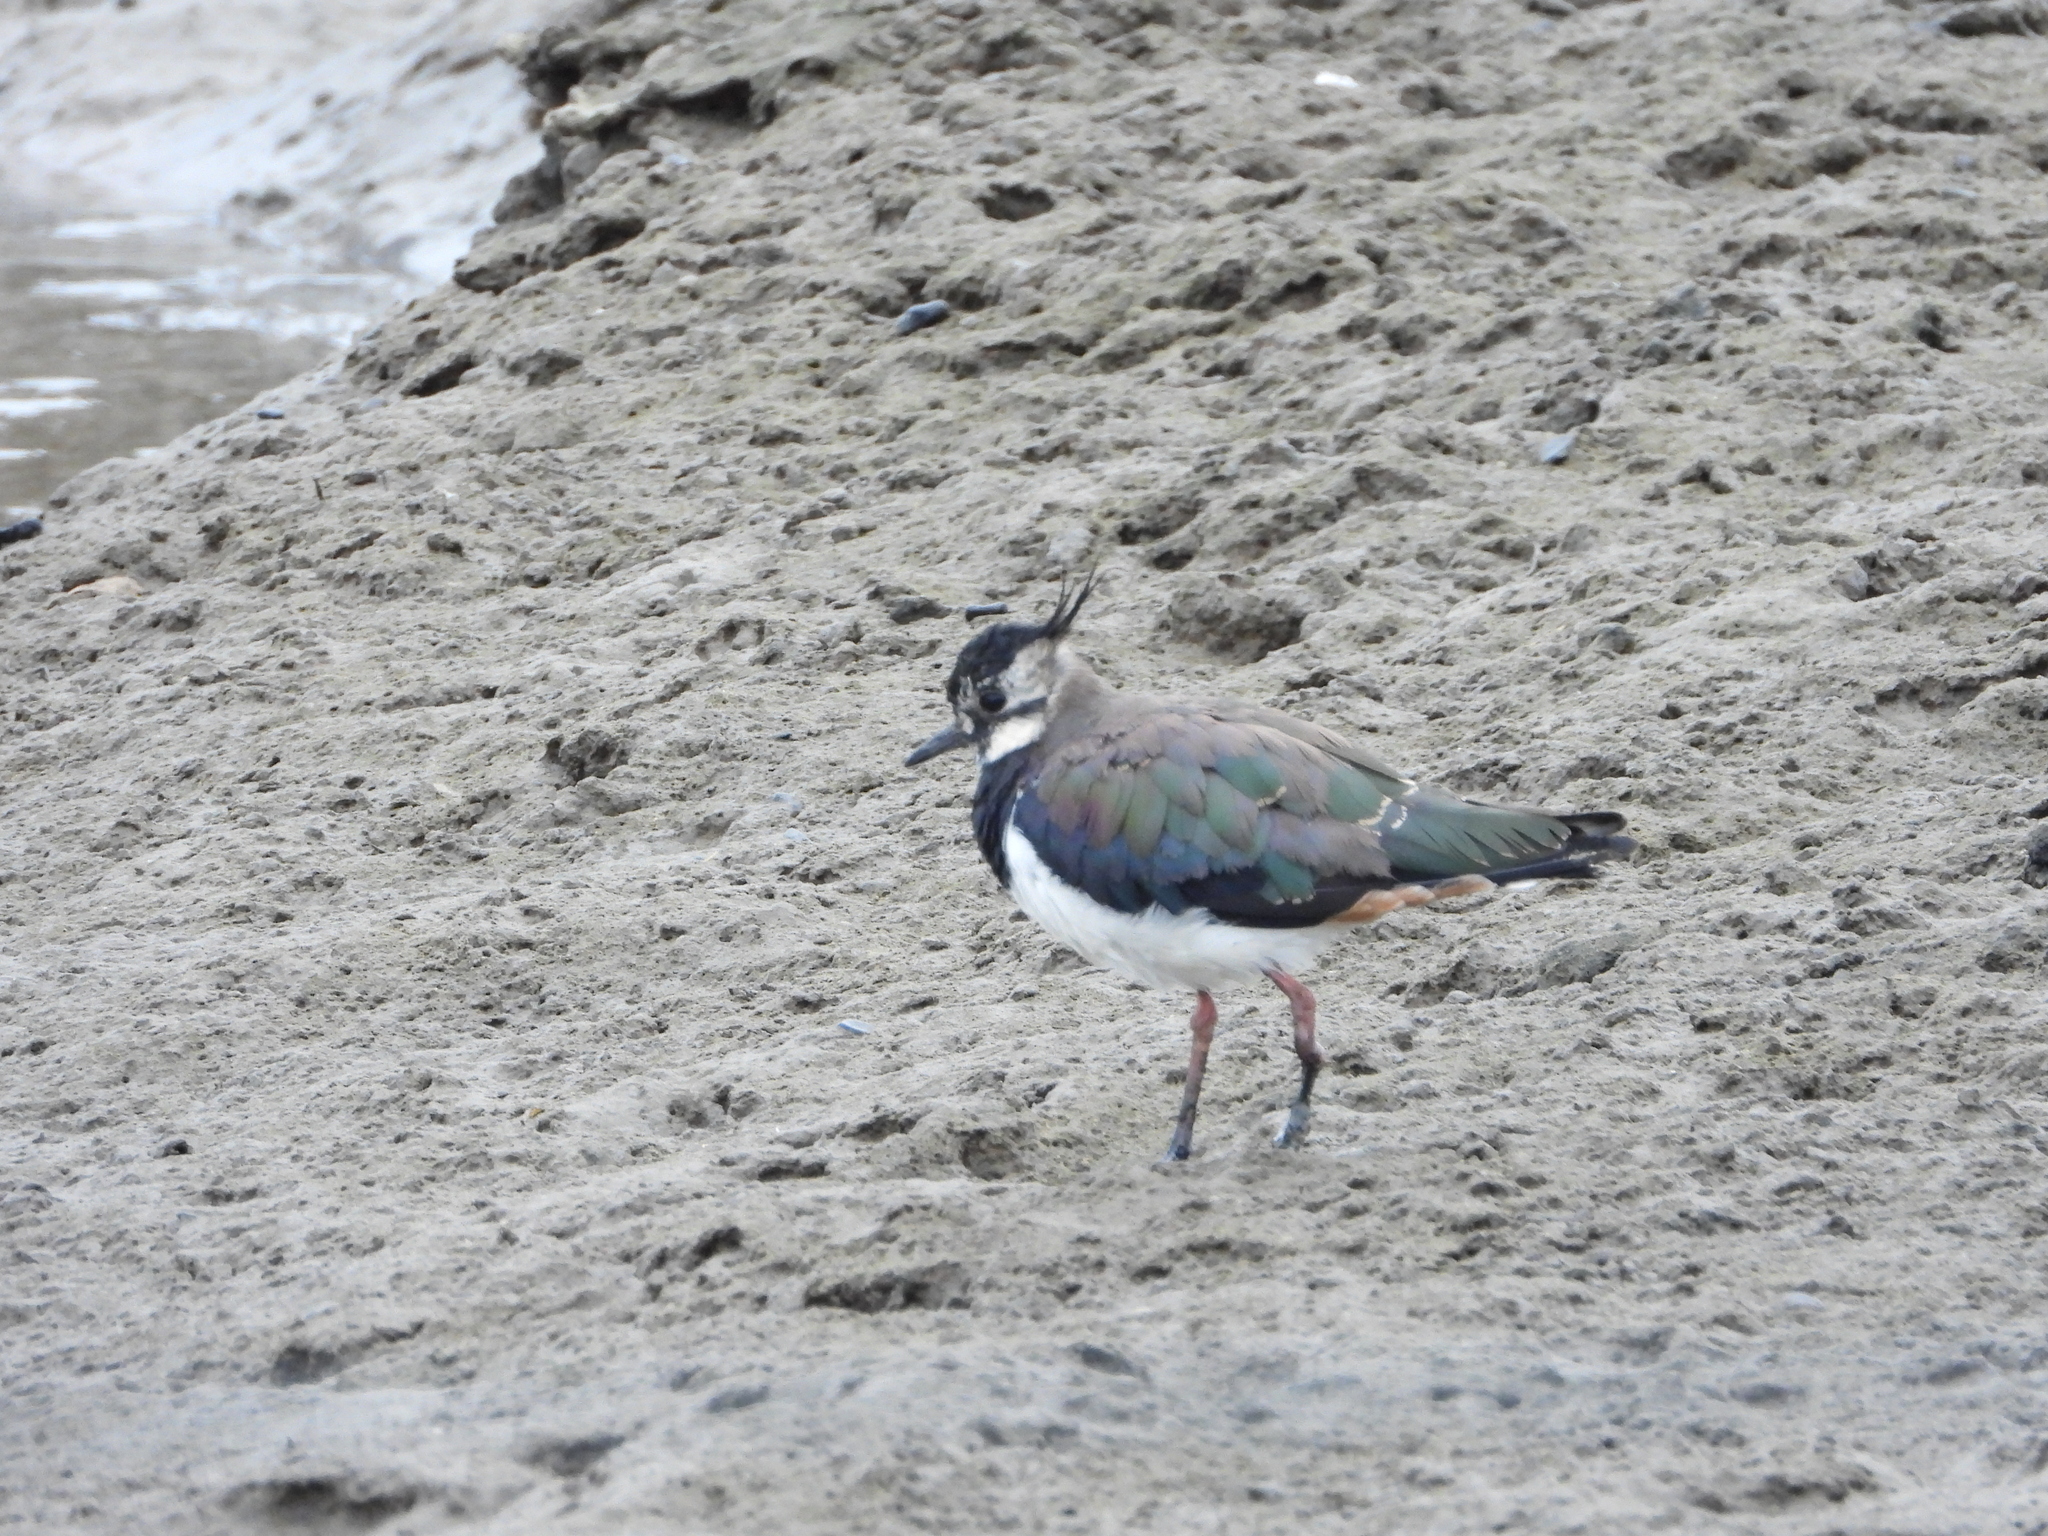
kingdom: Animalia
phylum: Chordata
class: Aves
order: Charadriiformes
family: Charadriidae
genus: Vanellus
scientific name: Vanellus vanellus
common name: Northern lapwing
